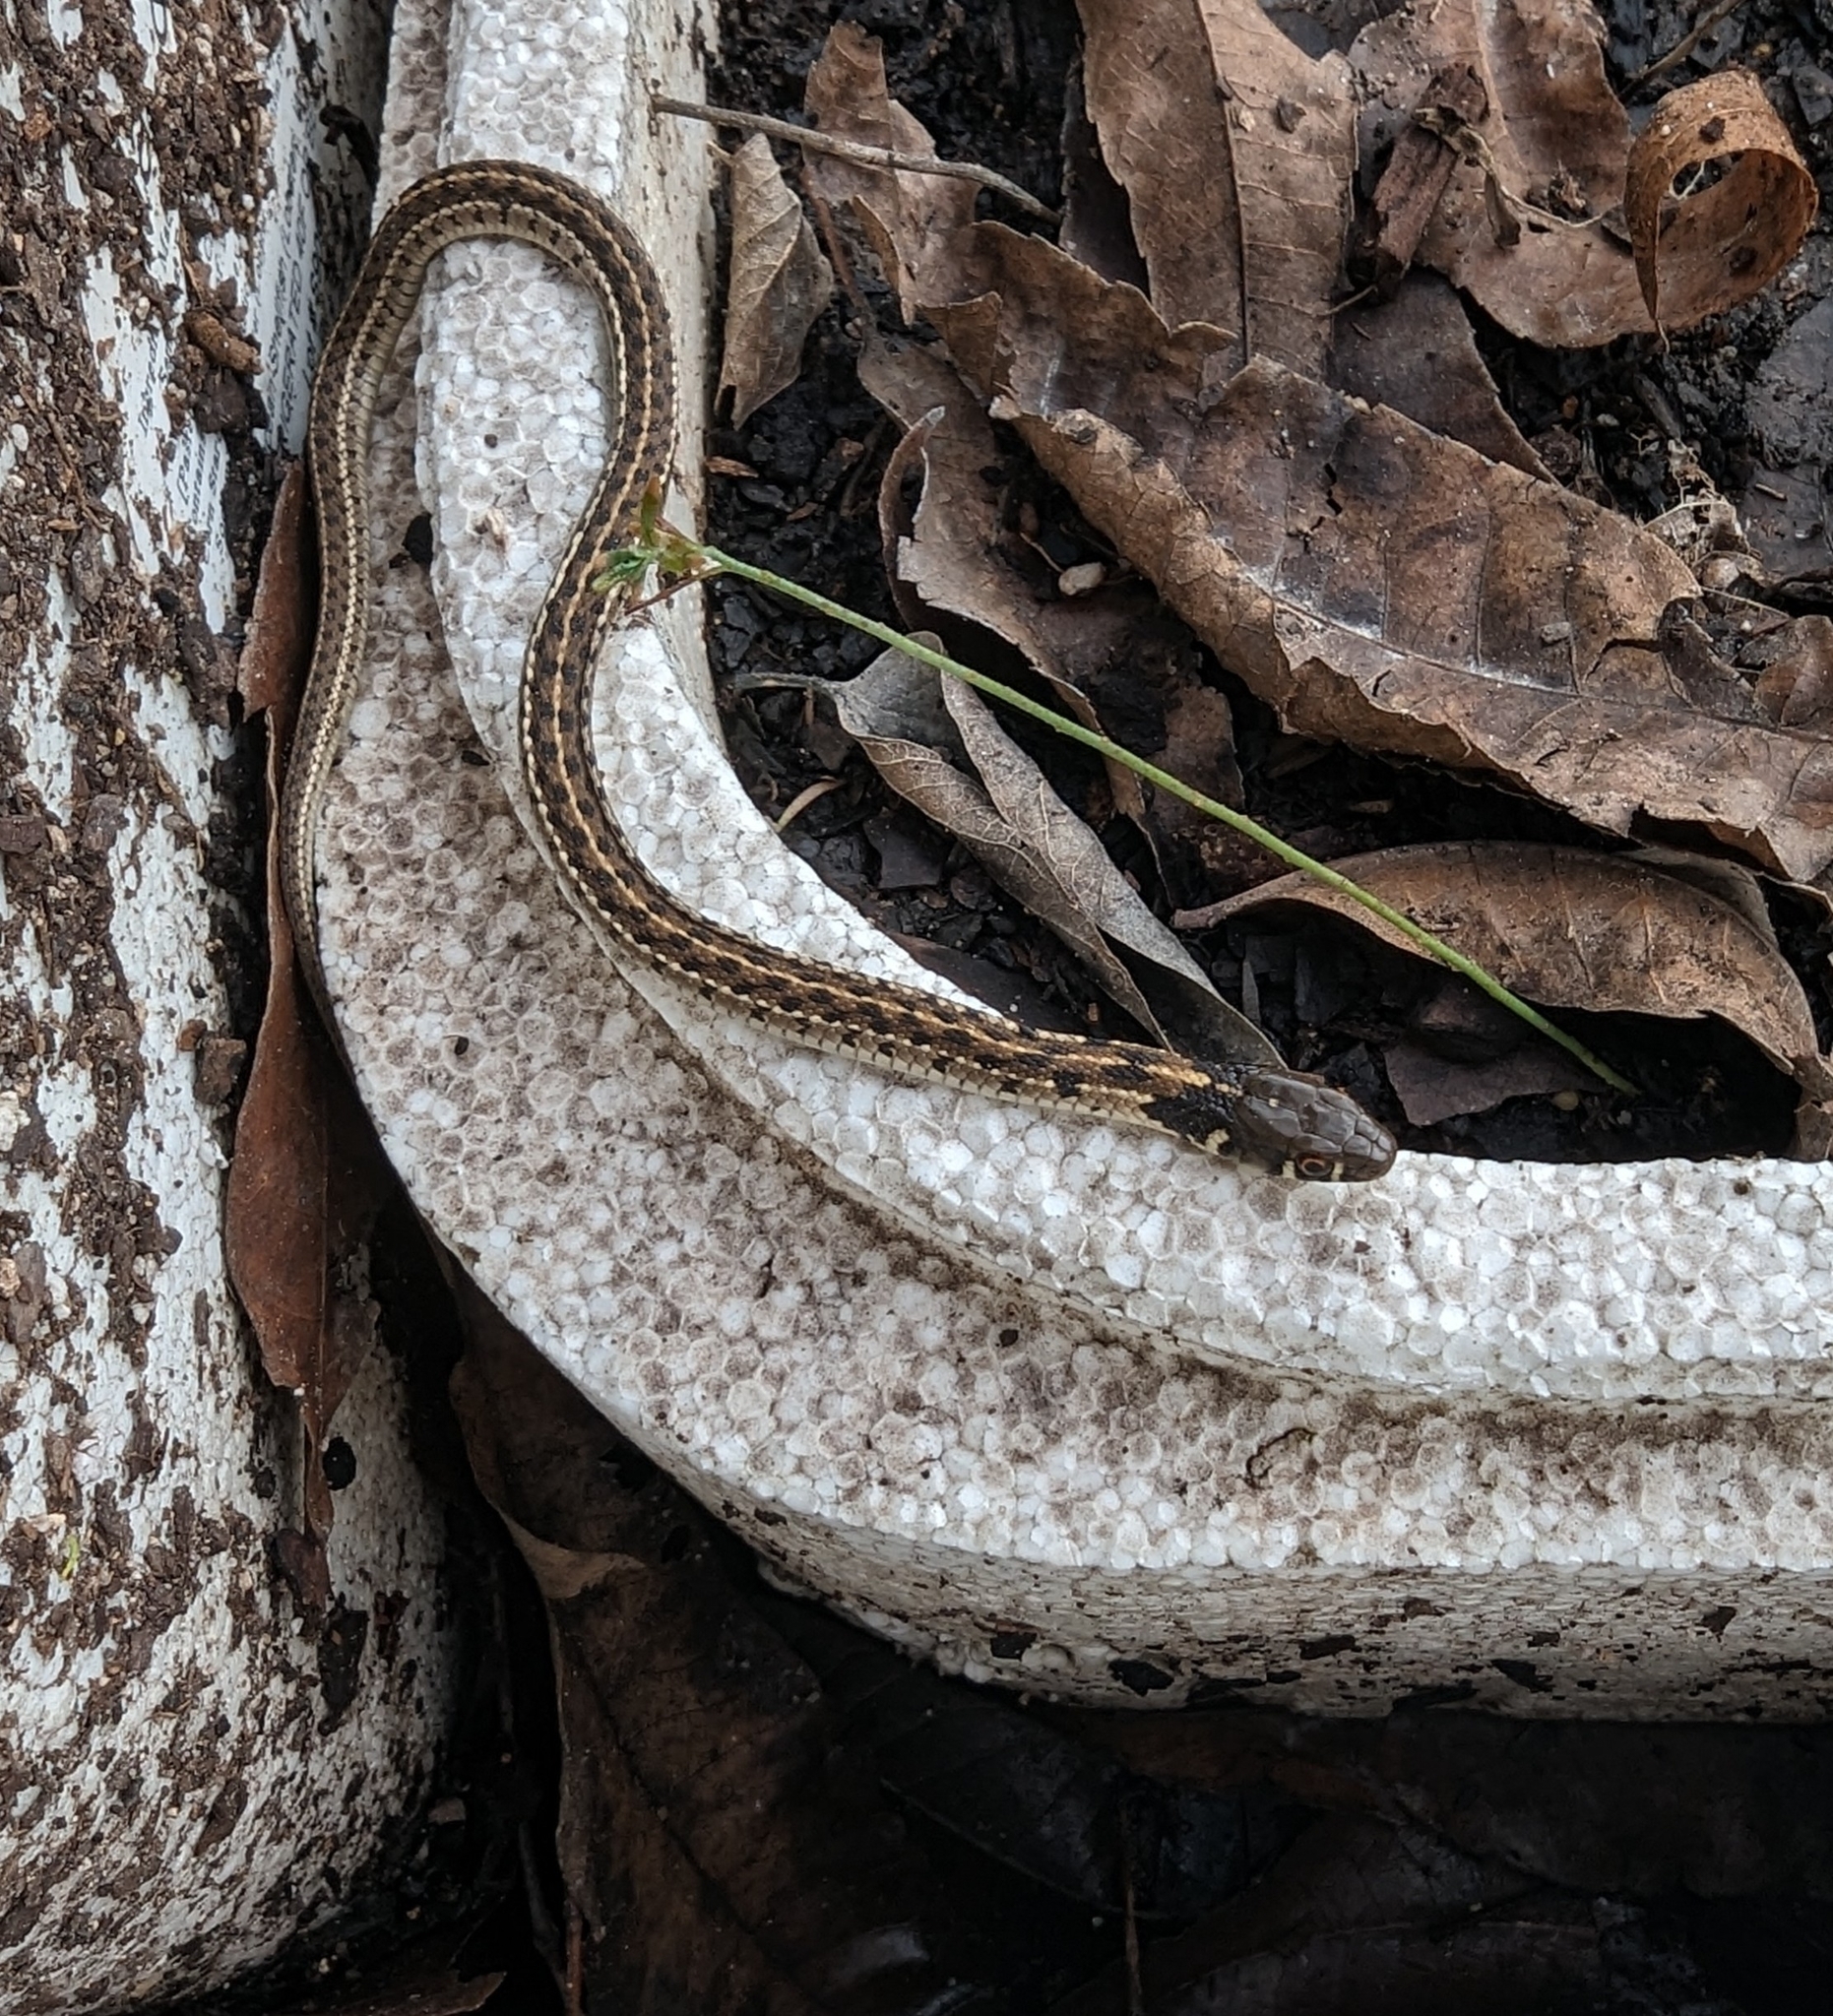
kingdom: Animalia
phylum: Chordata
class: Squamata
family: Colubridae
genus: Thamnophis
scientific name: Thamnophis marcianus
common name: Checkered garter snake
